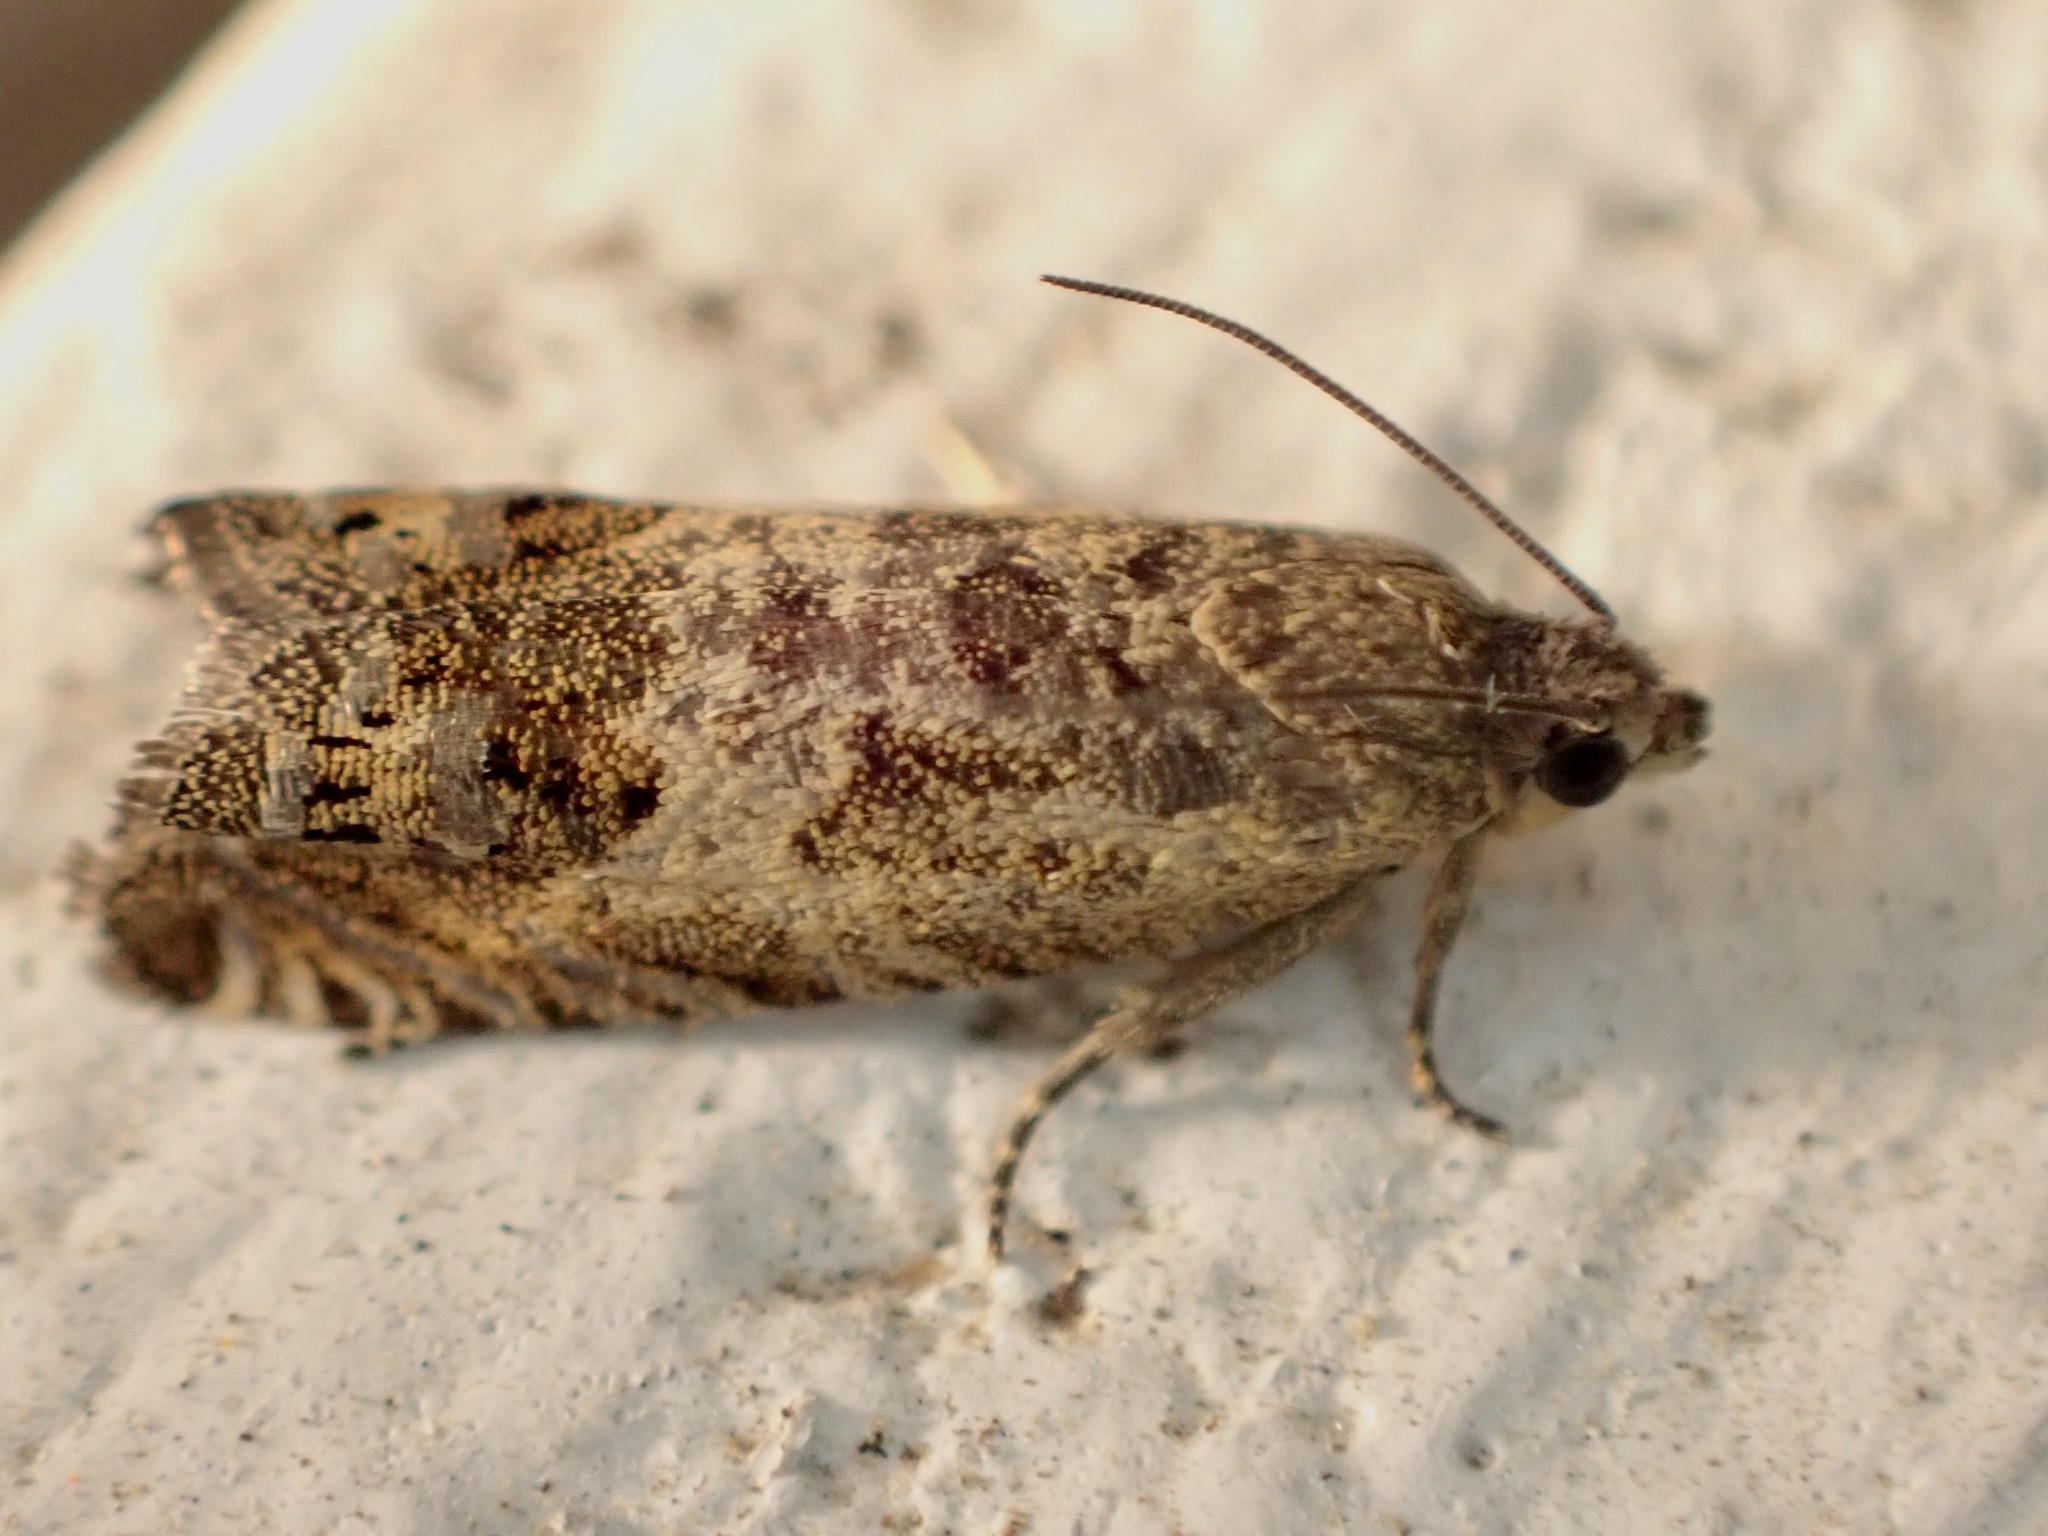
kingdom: Animalia
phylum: Arthropoda
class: Insecta
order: Lepidoptera
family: Tortricidae
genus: Cydia
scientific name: Cydia succedana
